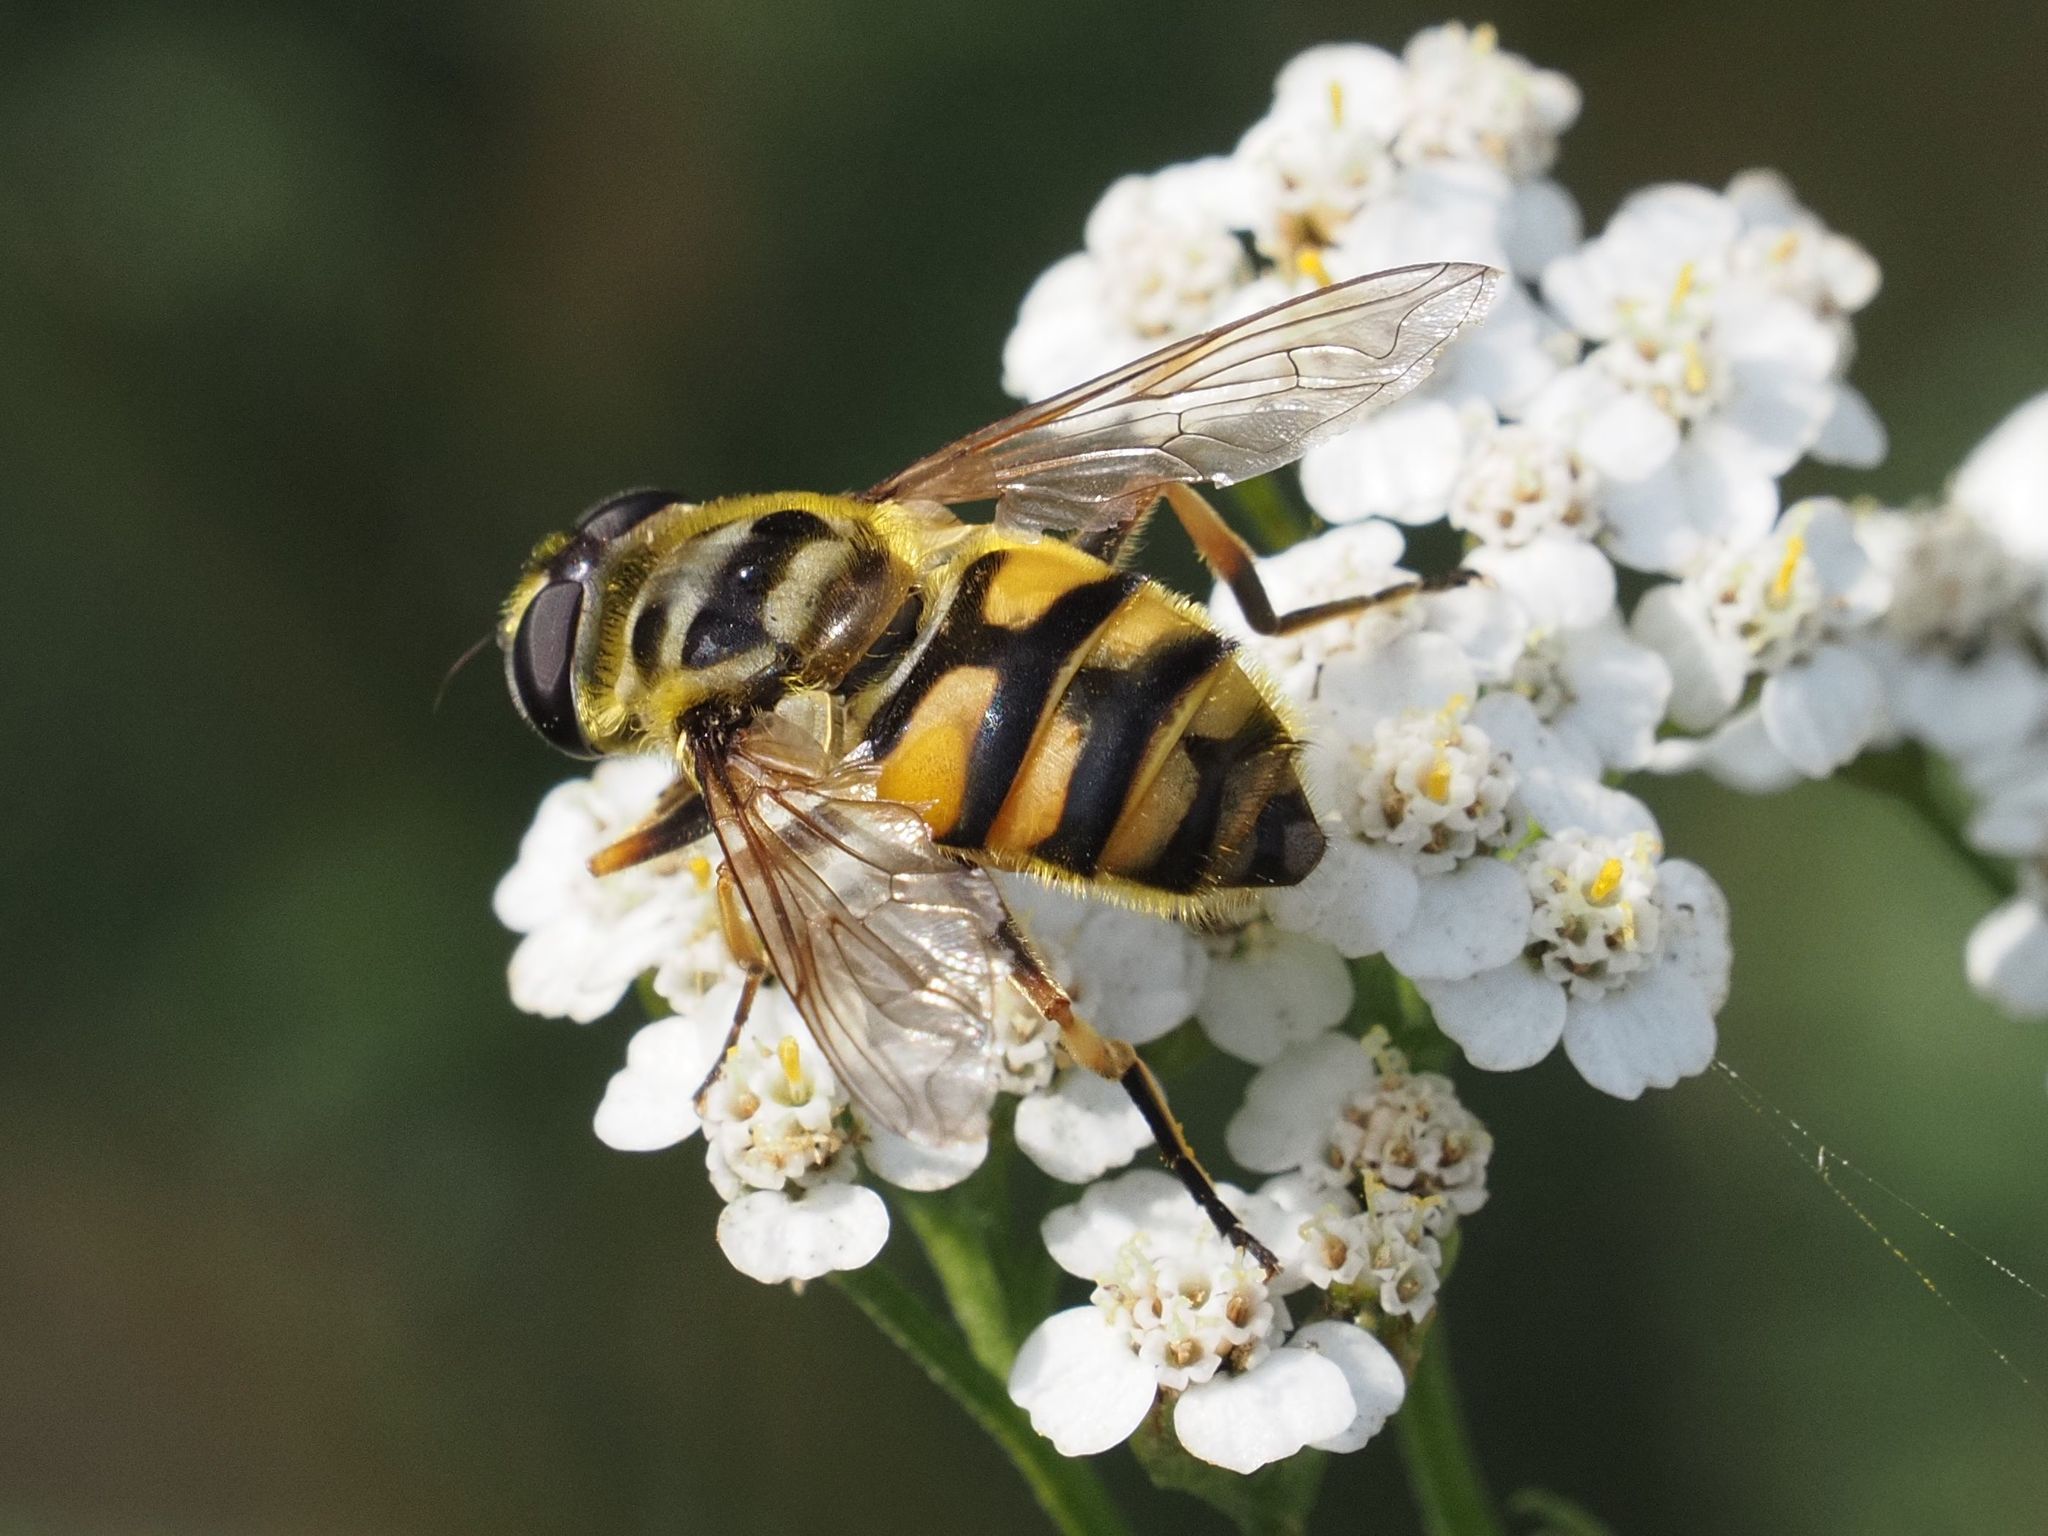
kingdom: Animalia
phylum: Arthropoda
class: Insecta
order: Diptera
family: Syrphidae
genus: Myathropa
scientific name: Myathropa florea
